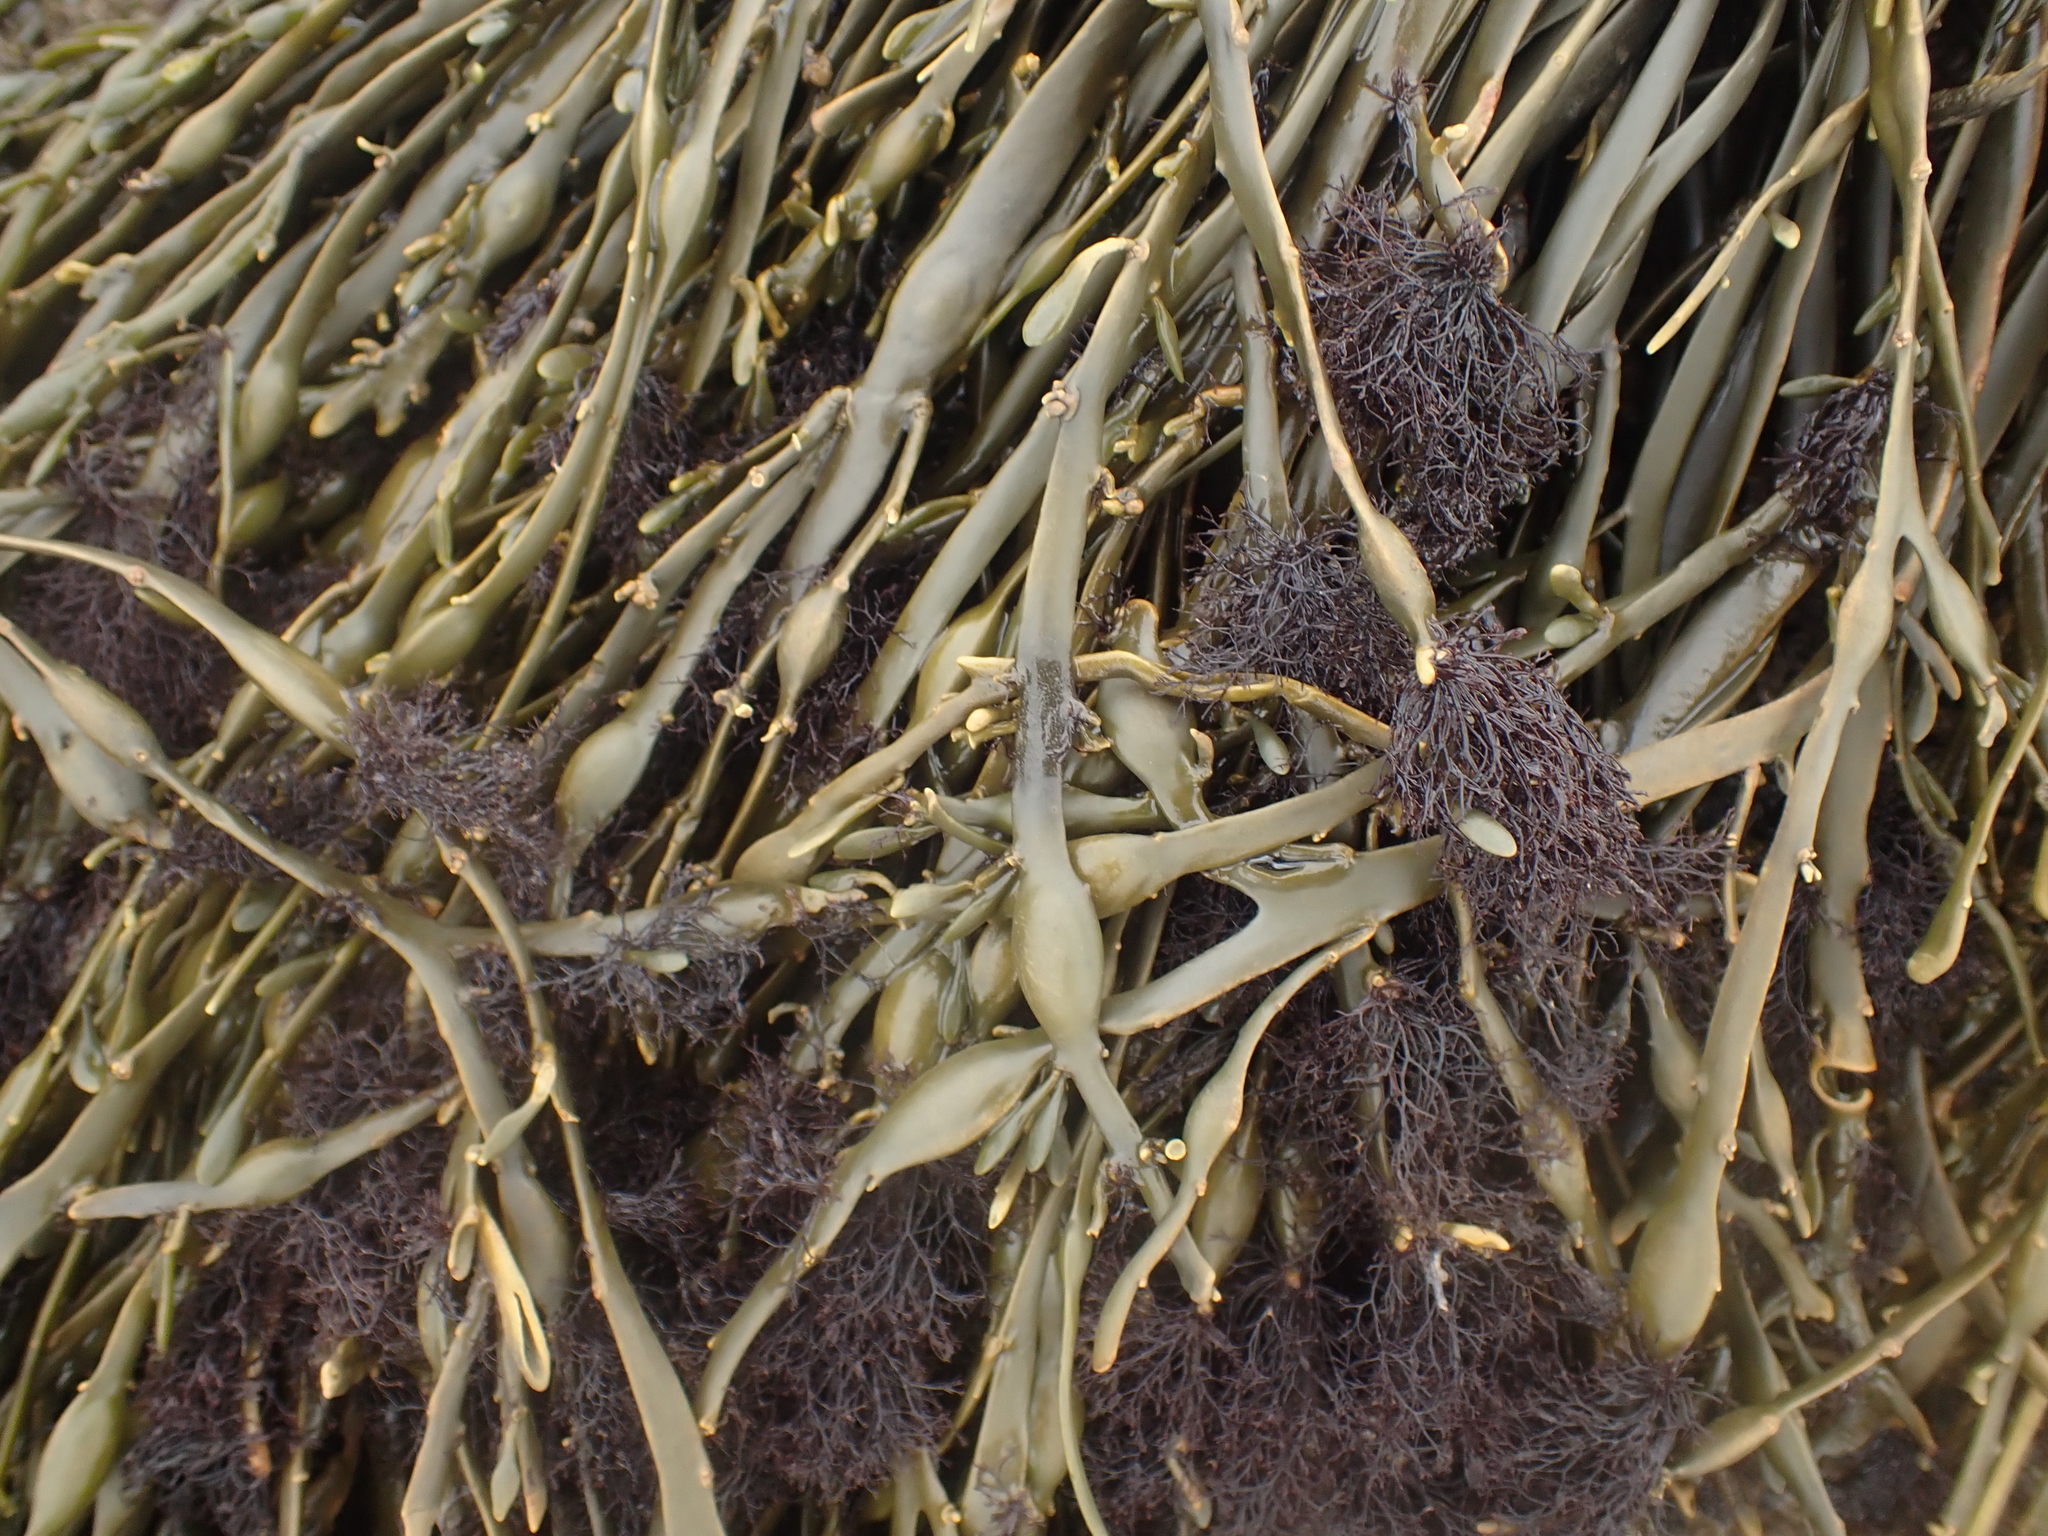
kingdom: Plantae
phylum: Rhodophyta
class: Florideophyceae
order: Ceramiales
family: Rhodomelaceae
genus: Vertebrata
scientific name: Vertebrata lanosa
